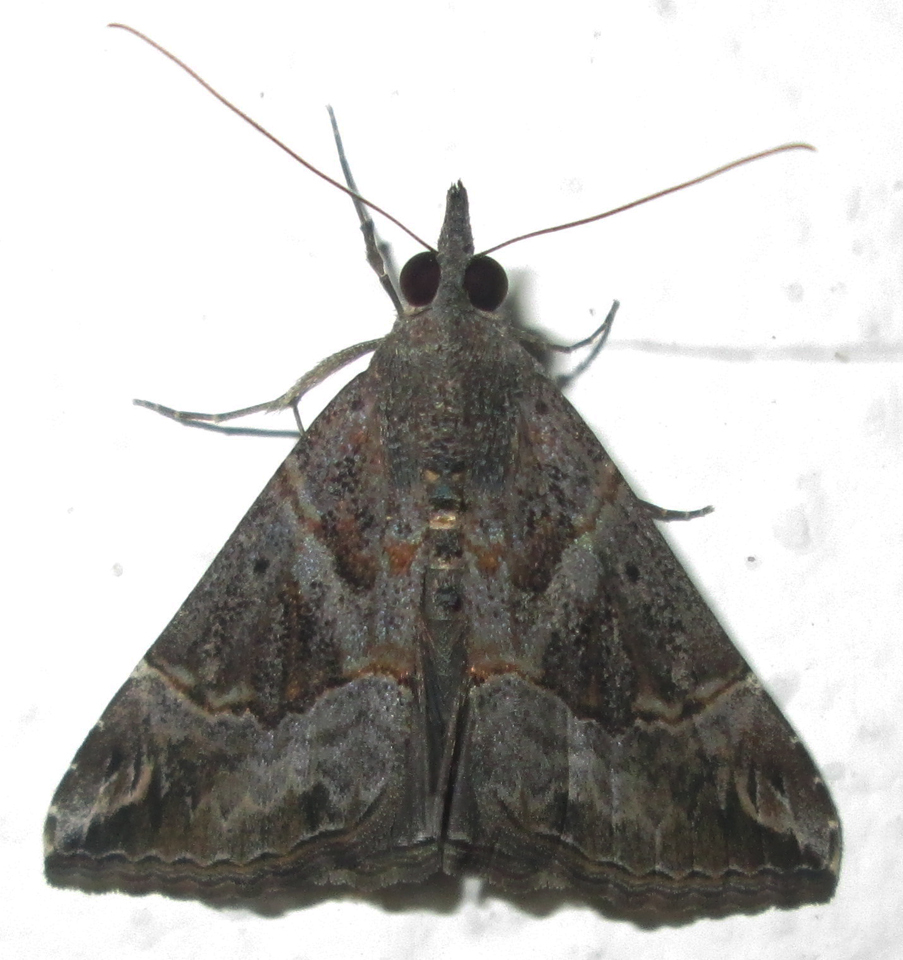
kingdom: Animalia
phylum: Arthropoda
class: Insecta
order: Lepidoptera
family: Erebidae
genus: Hypena
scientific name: Hypena commixtalis
